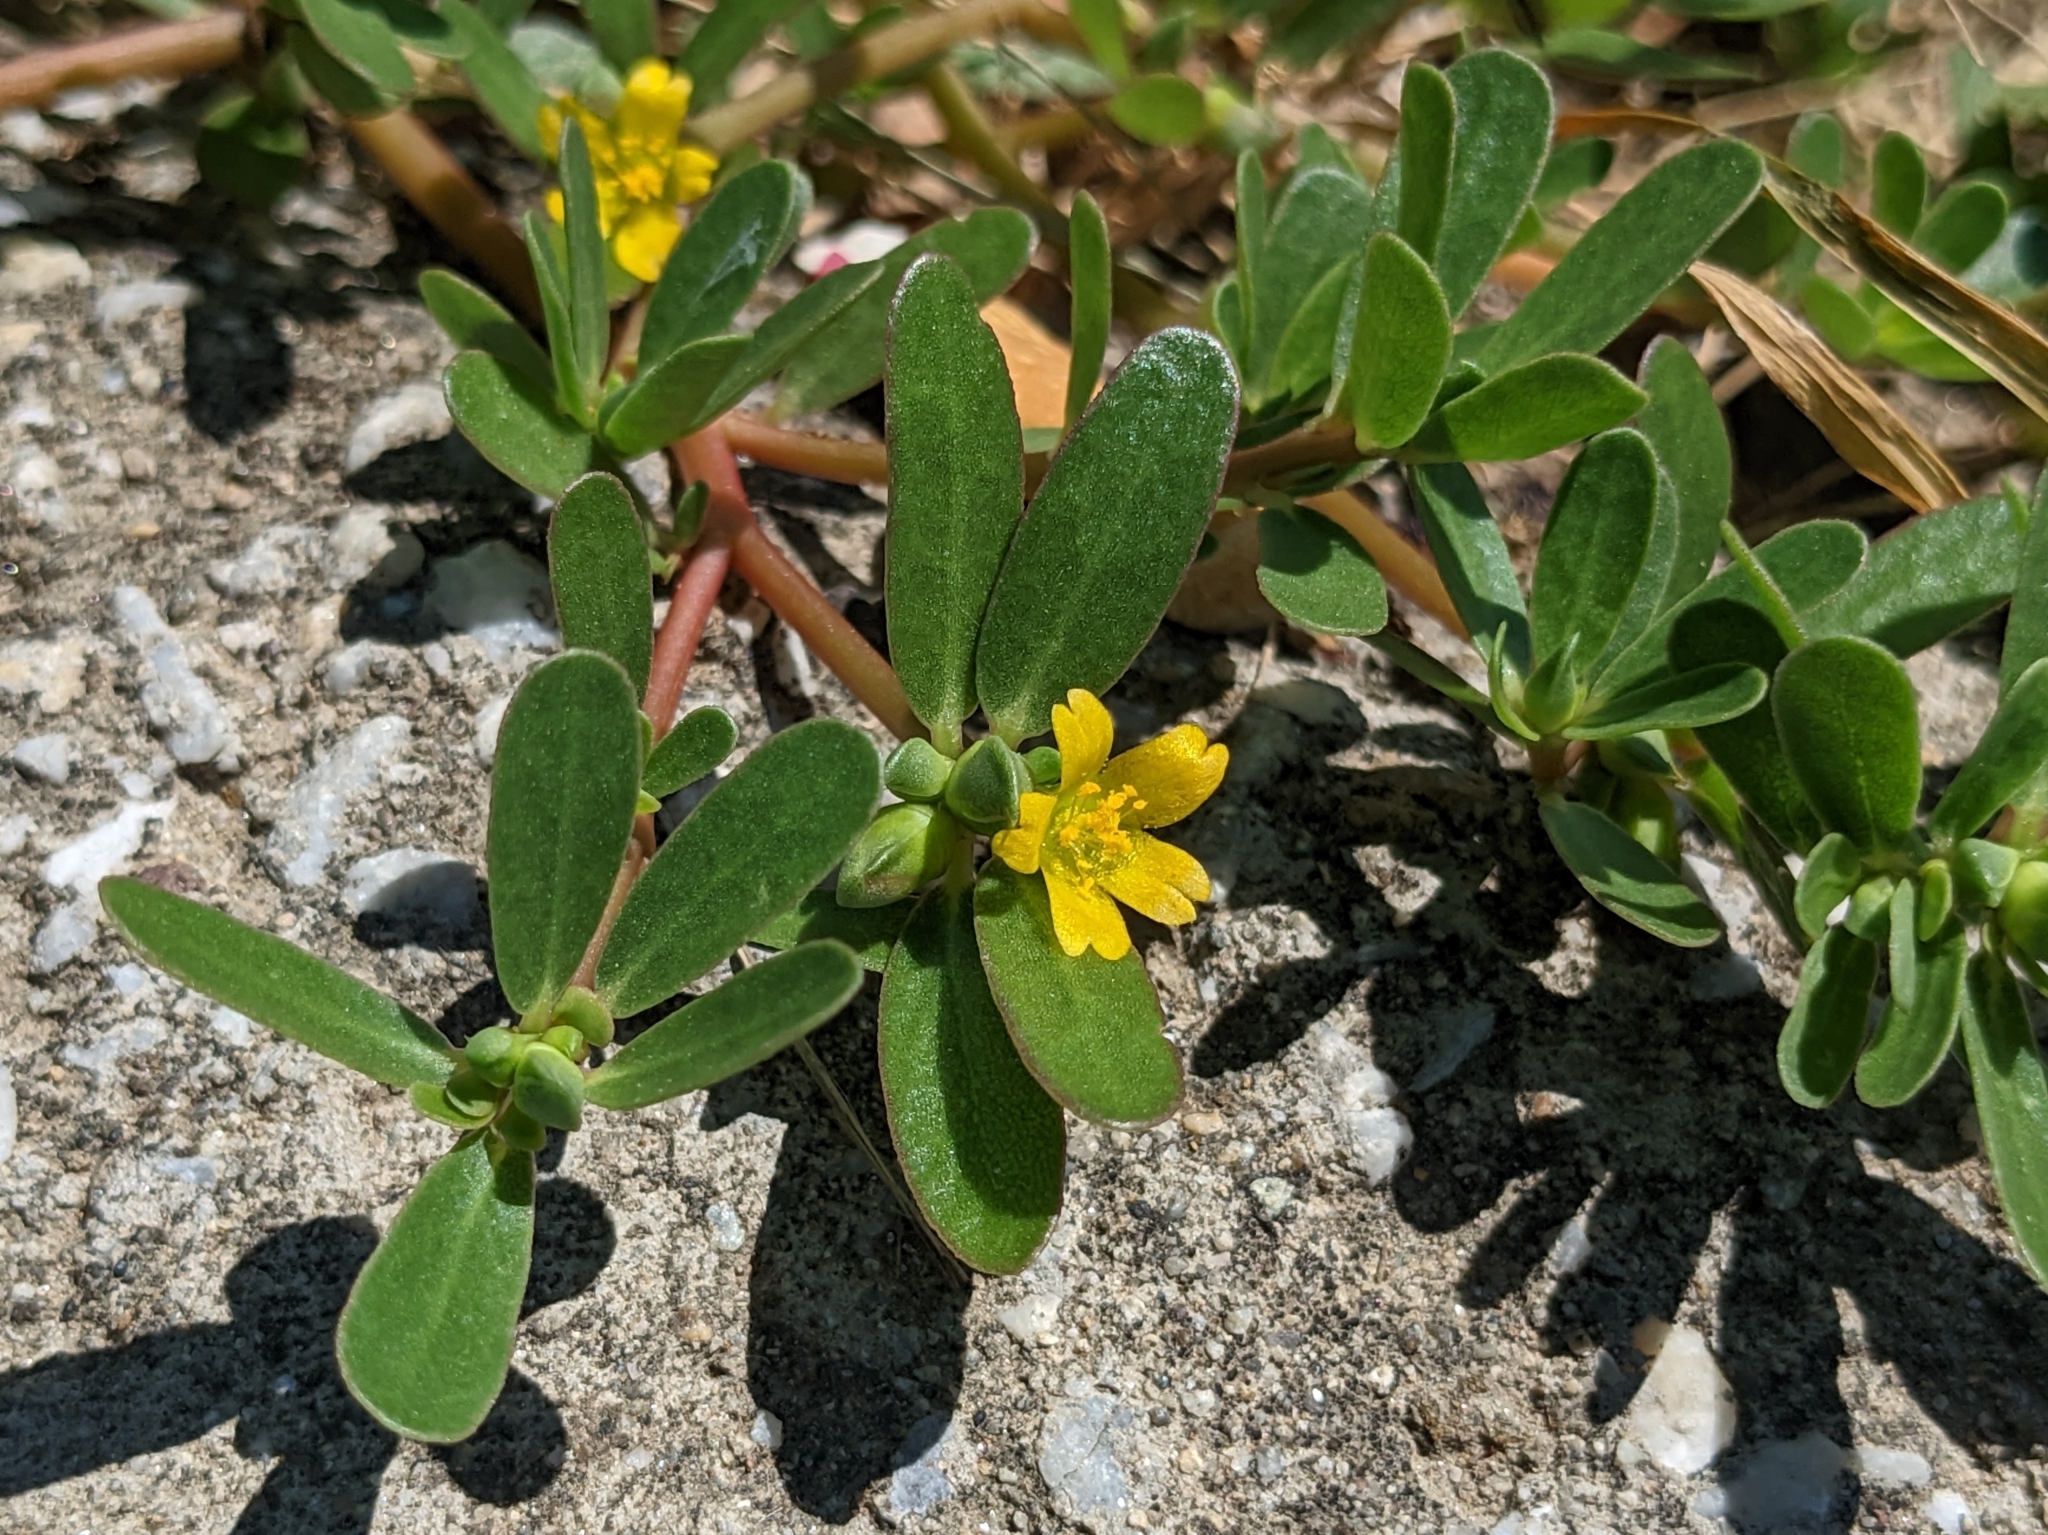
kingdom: Plantae
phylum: Tracheophyta
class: Magnoliopsida
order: Caryophyllales
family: Portulacaceae
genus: Portulaca
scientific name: Portulaca oleracea
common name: Common purslane
